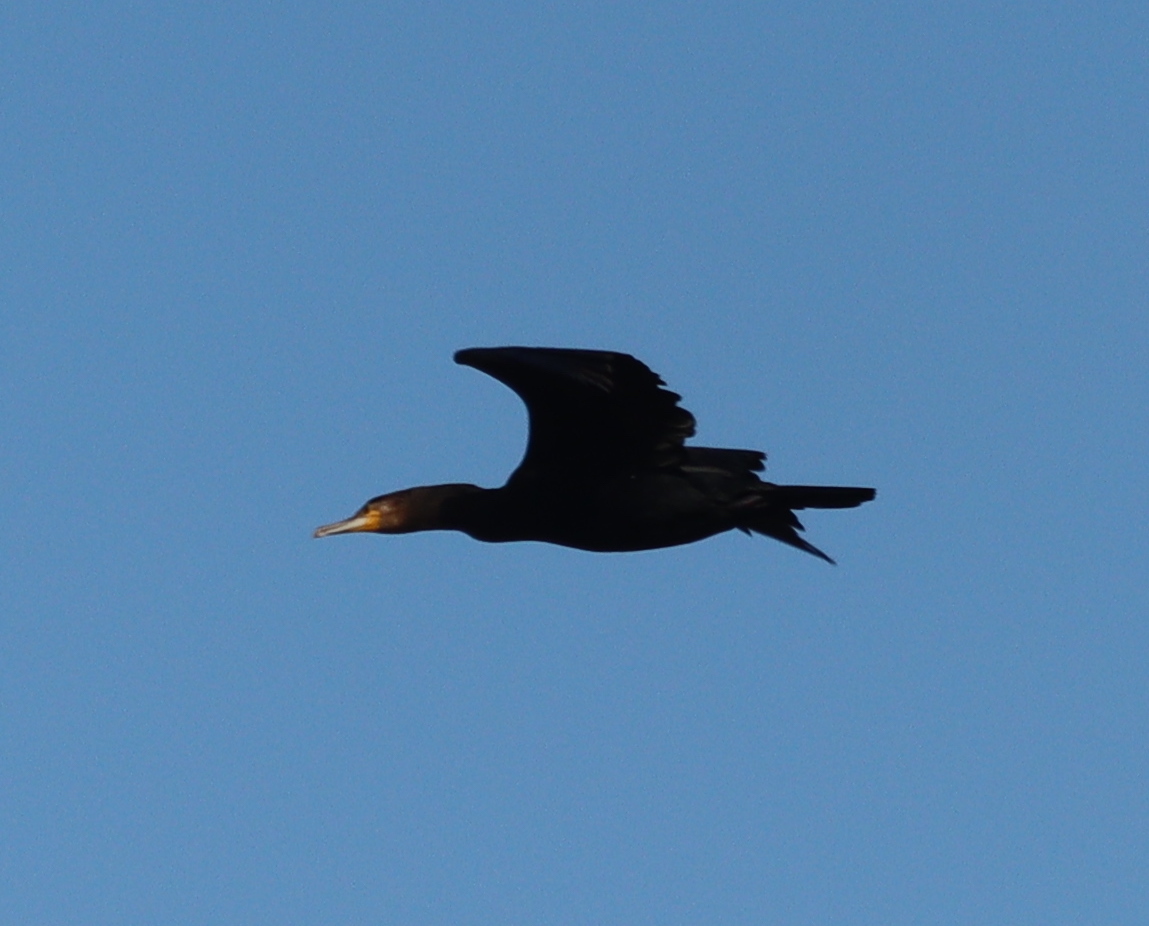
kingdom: Animalia
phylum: Chordata
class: Aves
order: Suliformes
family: Phalacrocoracidae
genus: Phalacrocorax
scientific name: Phalacrocorax carbo
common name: Great cormorant
